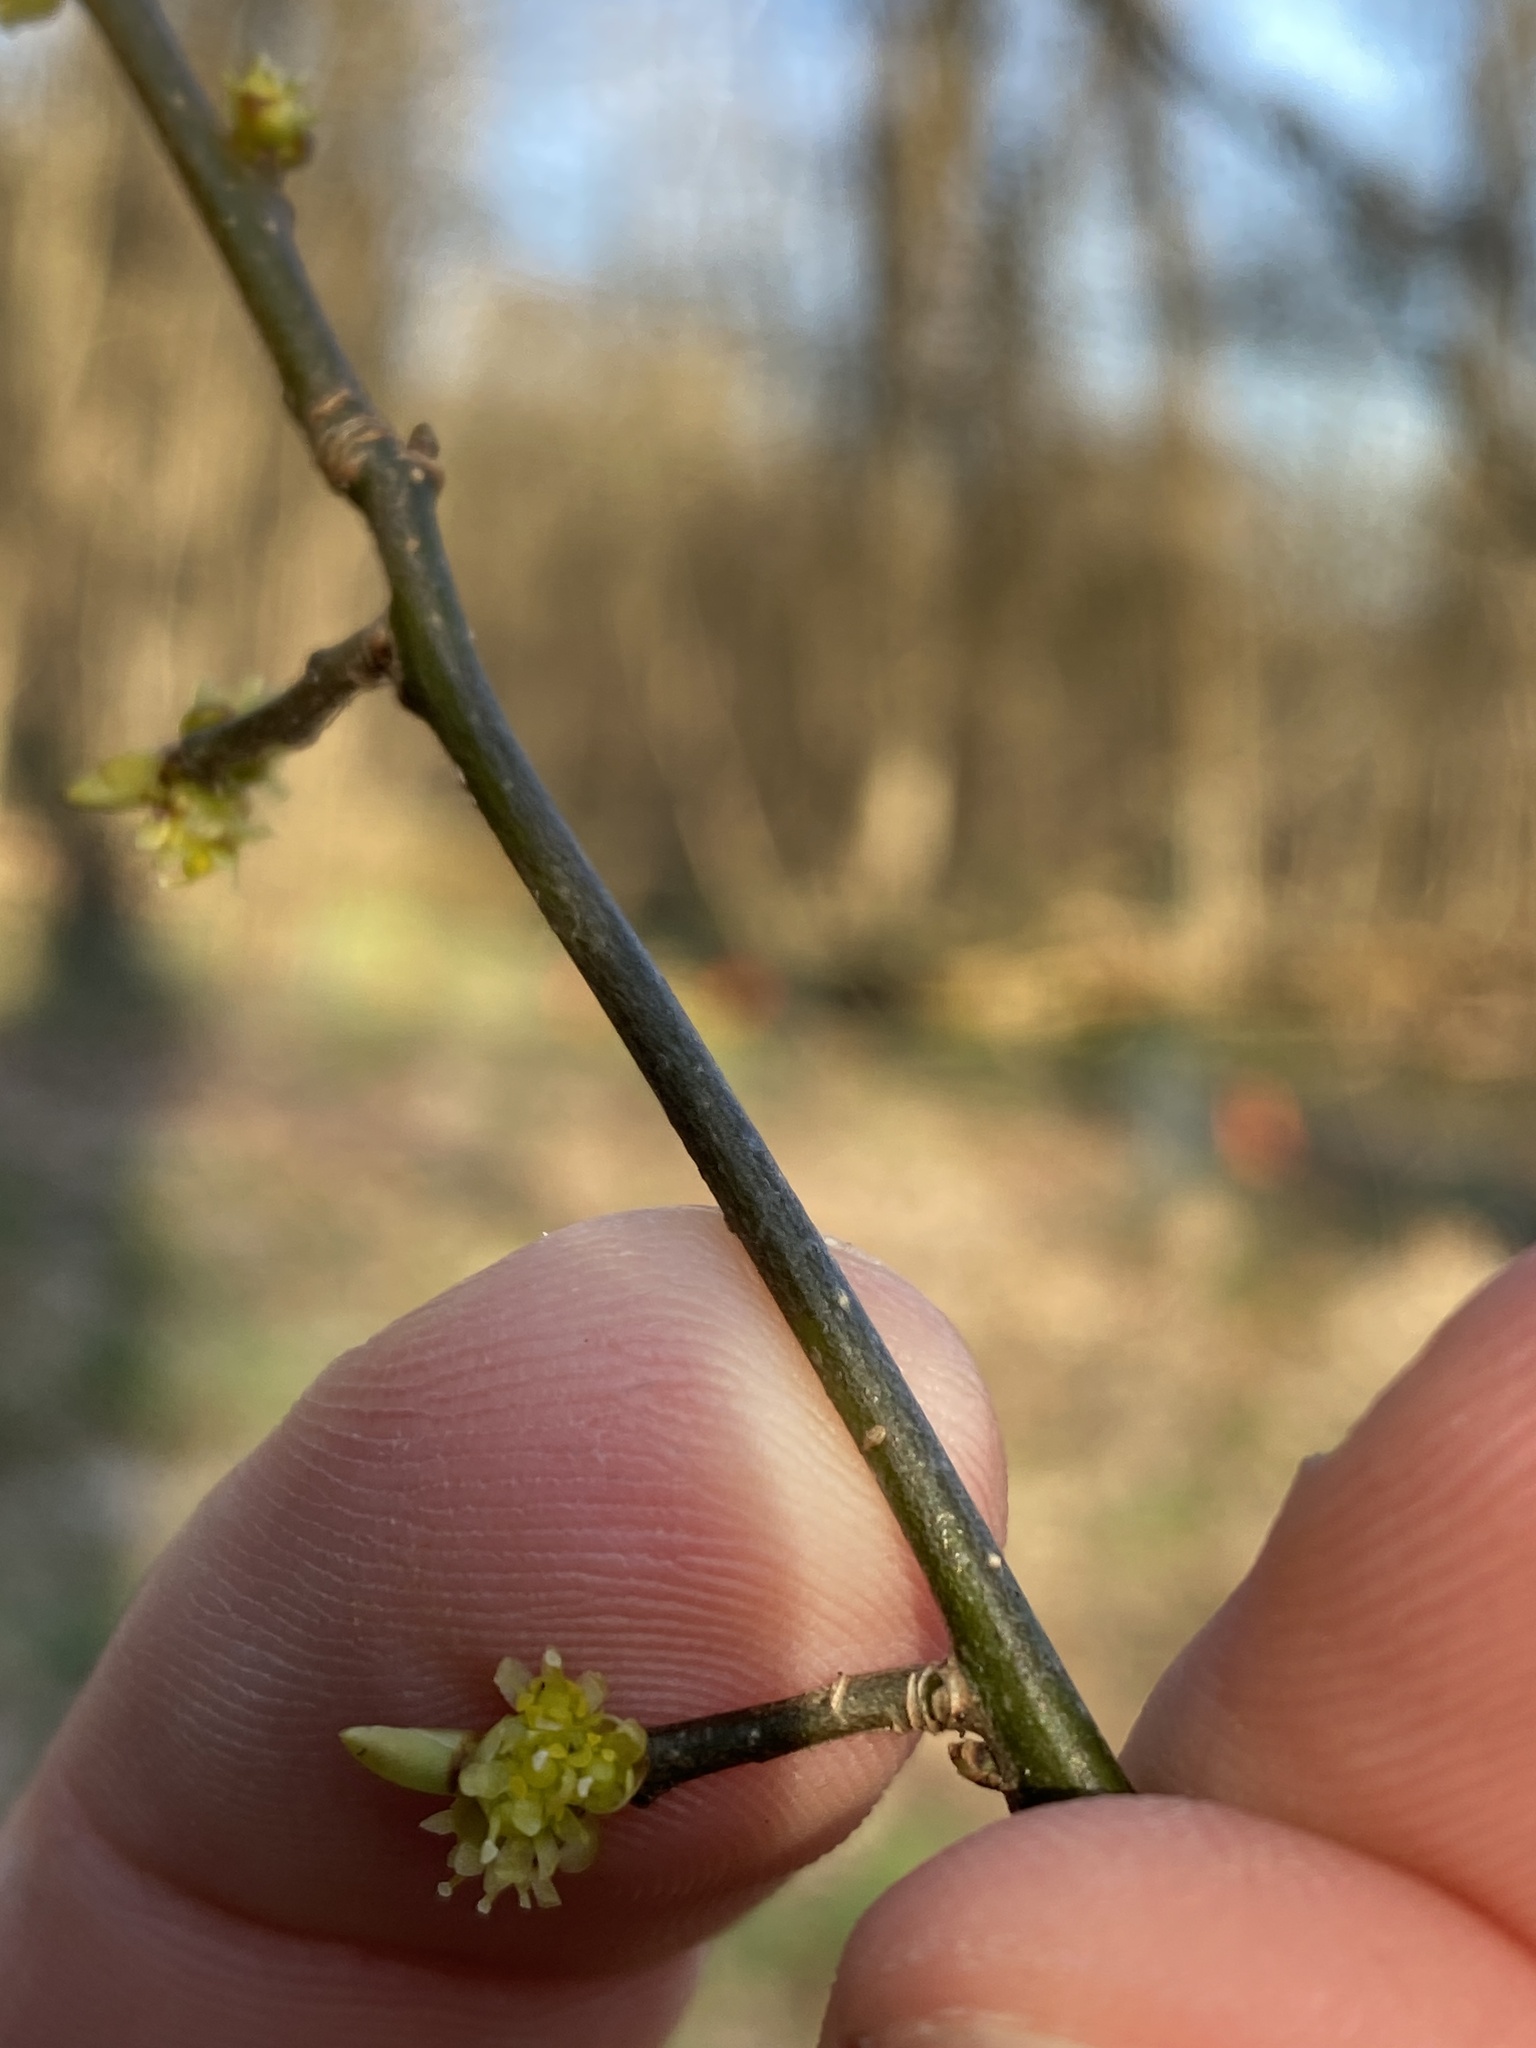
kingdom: Plantae
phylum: Tracheophyta
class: Magnoliopsida
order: Laurales
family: Lauraceae
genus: Lindera
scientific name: Lindera benzoin
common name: Spicebush
